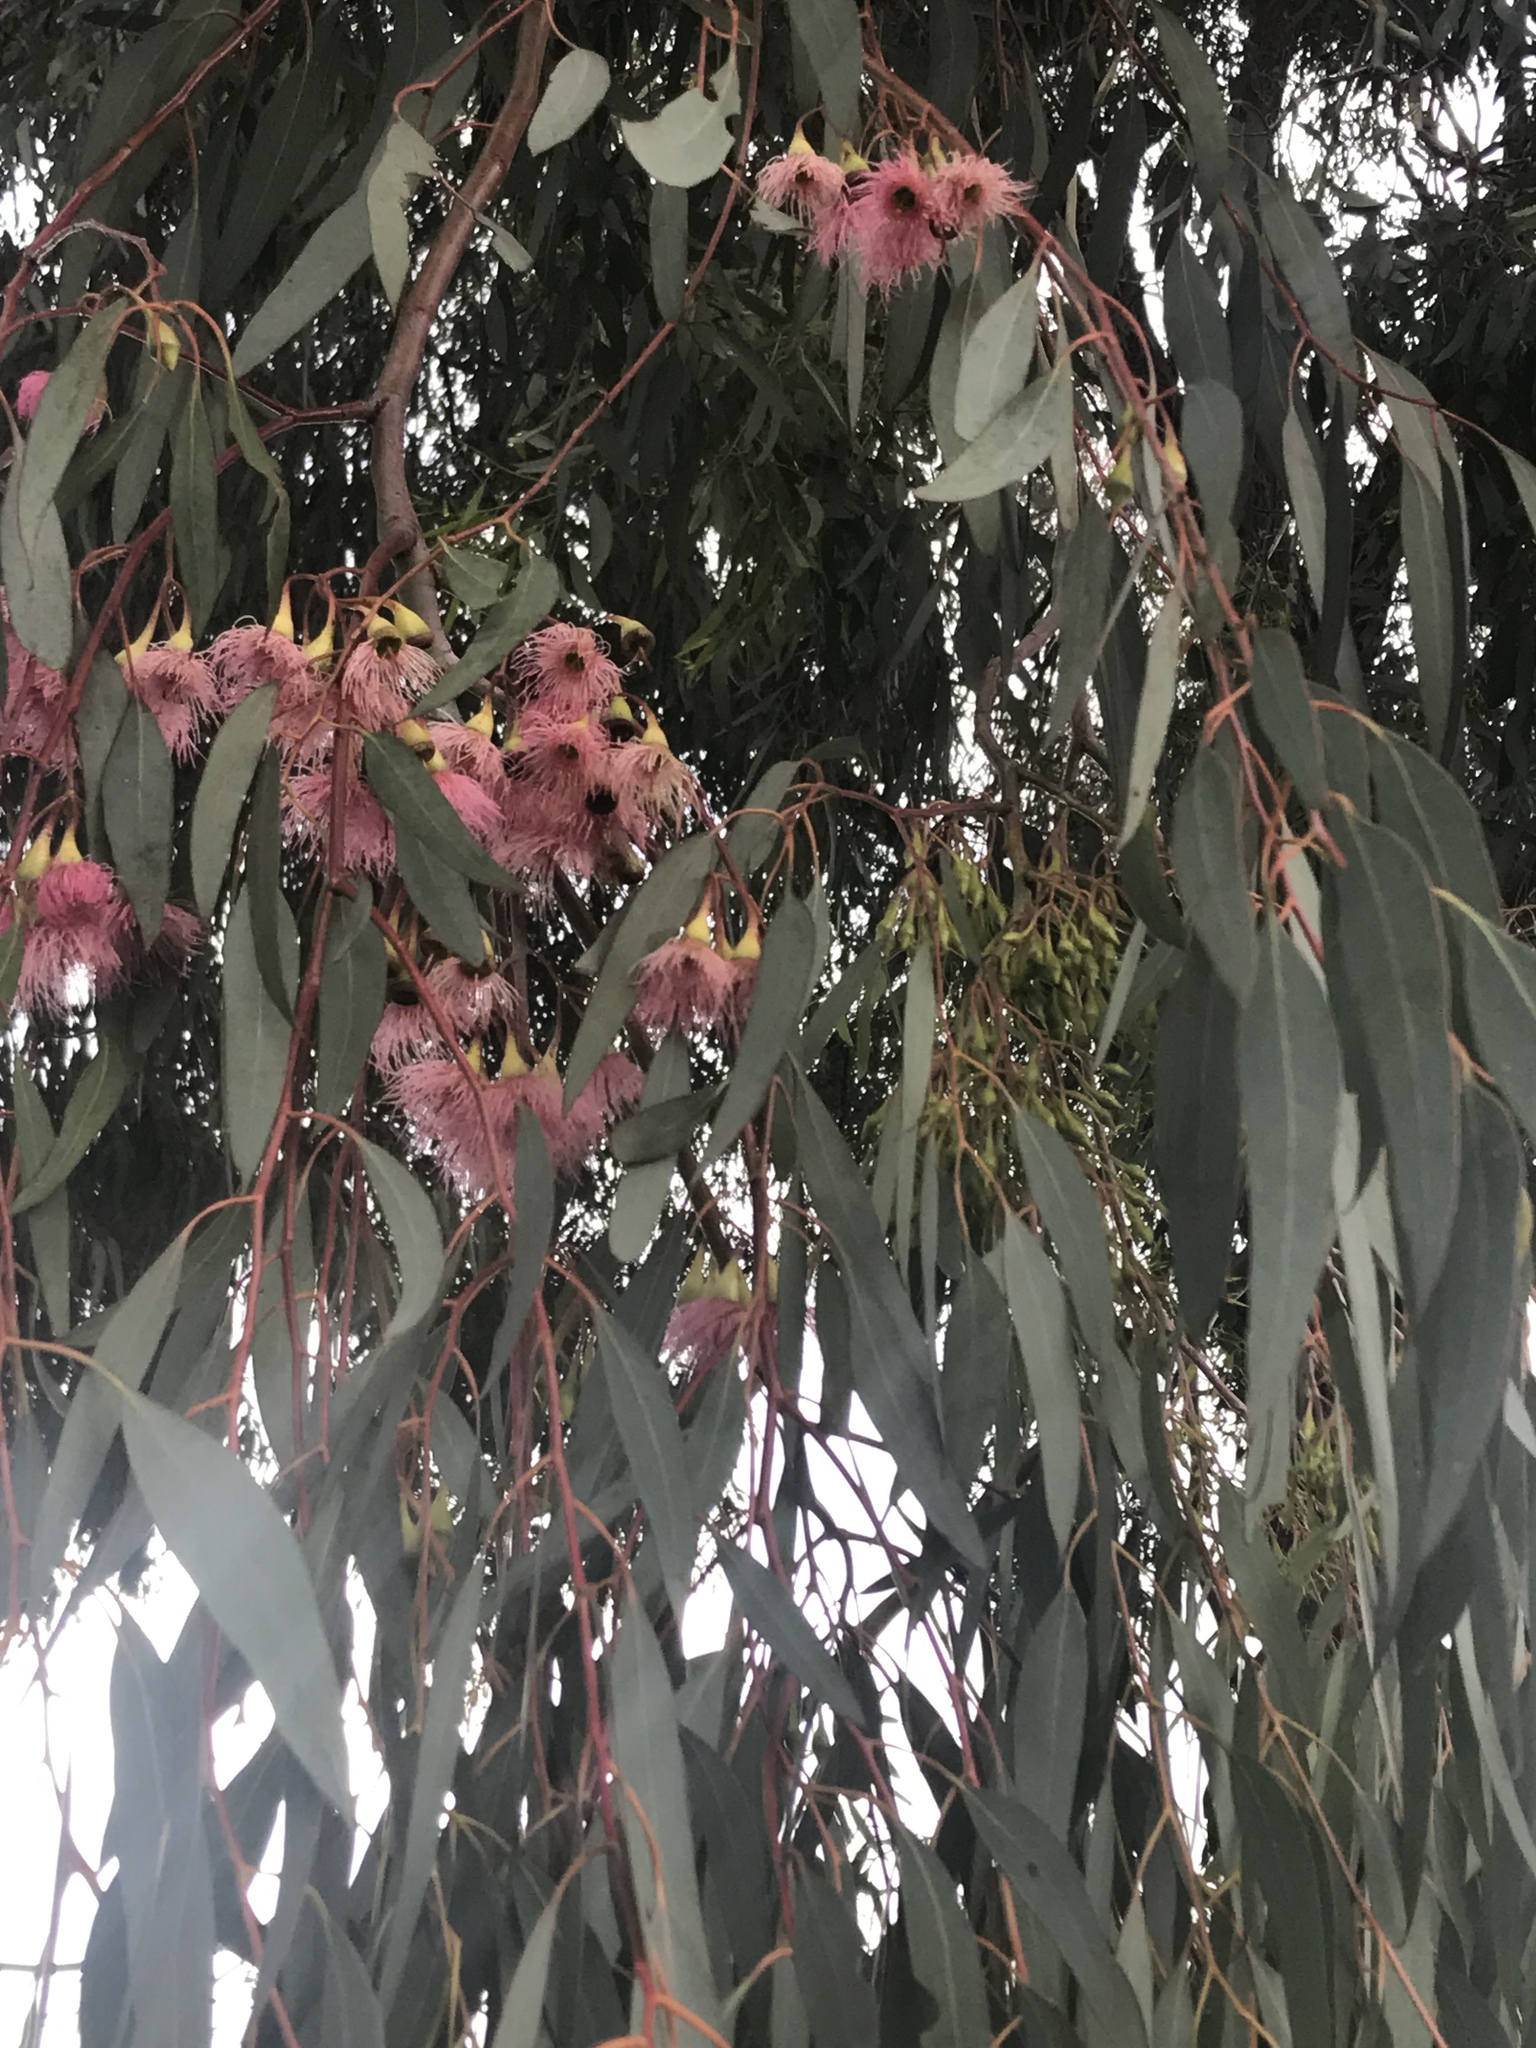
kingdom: Plantae
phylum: Tracheophyta
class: Magnoliopsida
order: Myrtales
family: Myrtaceae
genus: Eucalyptus
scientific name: Eucalyptus sideroxylon
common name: Red ironbark
